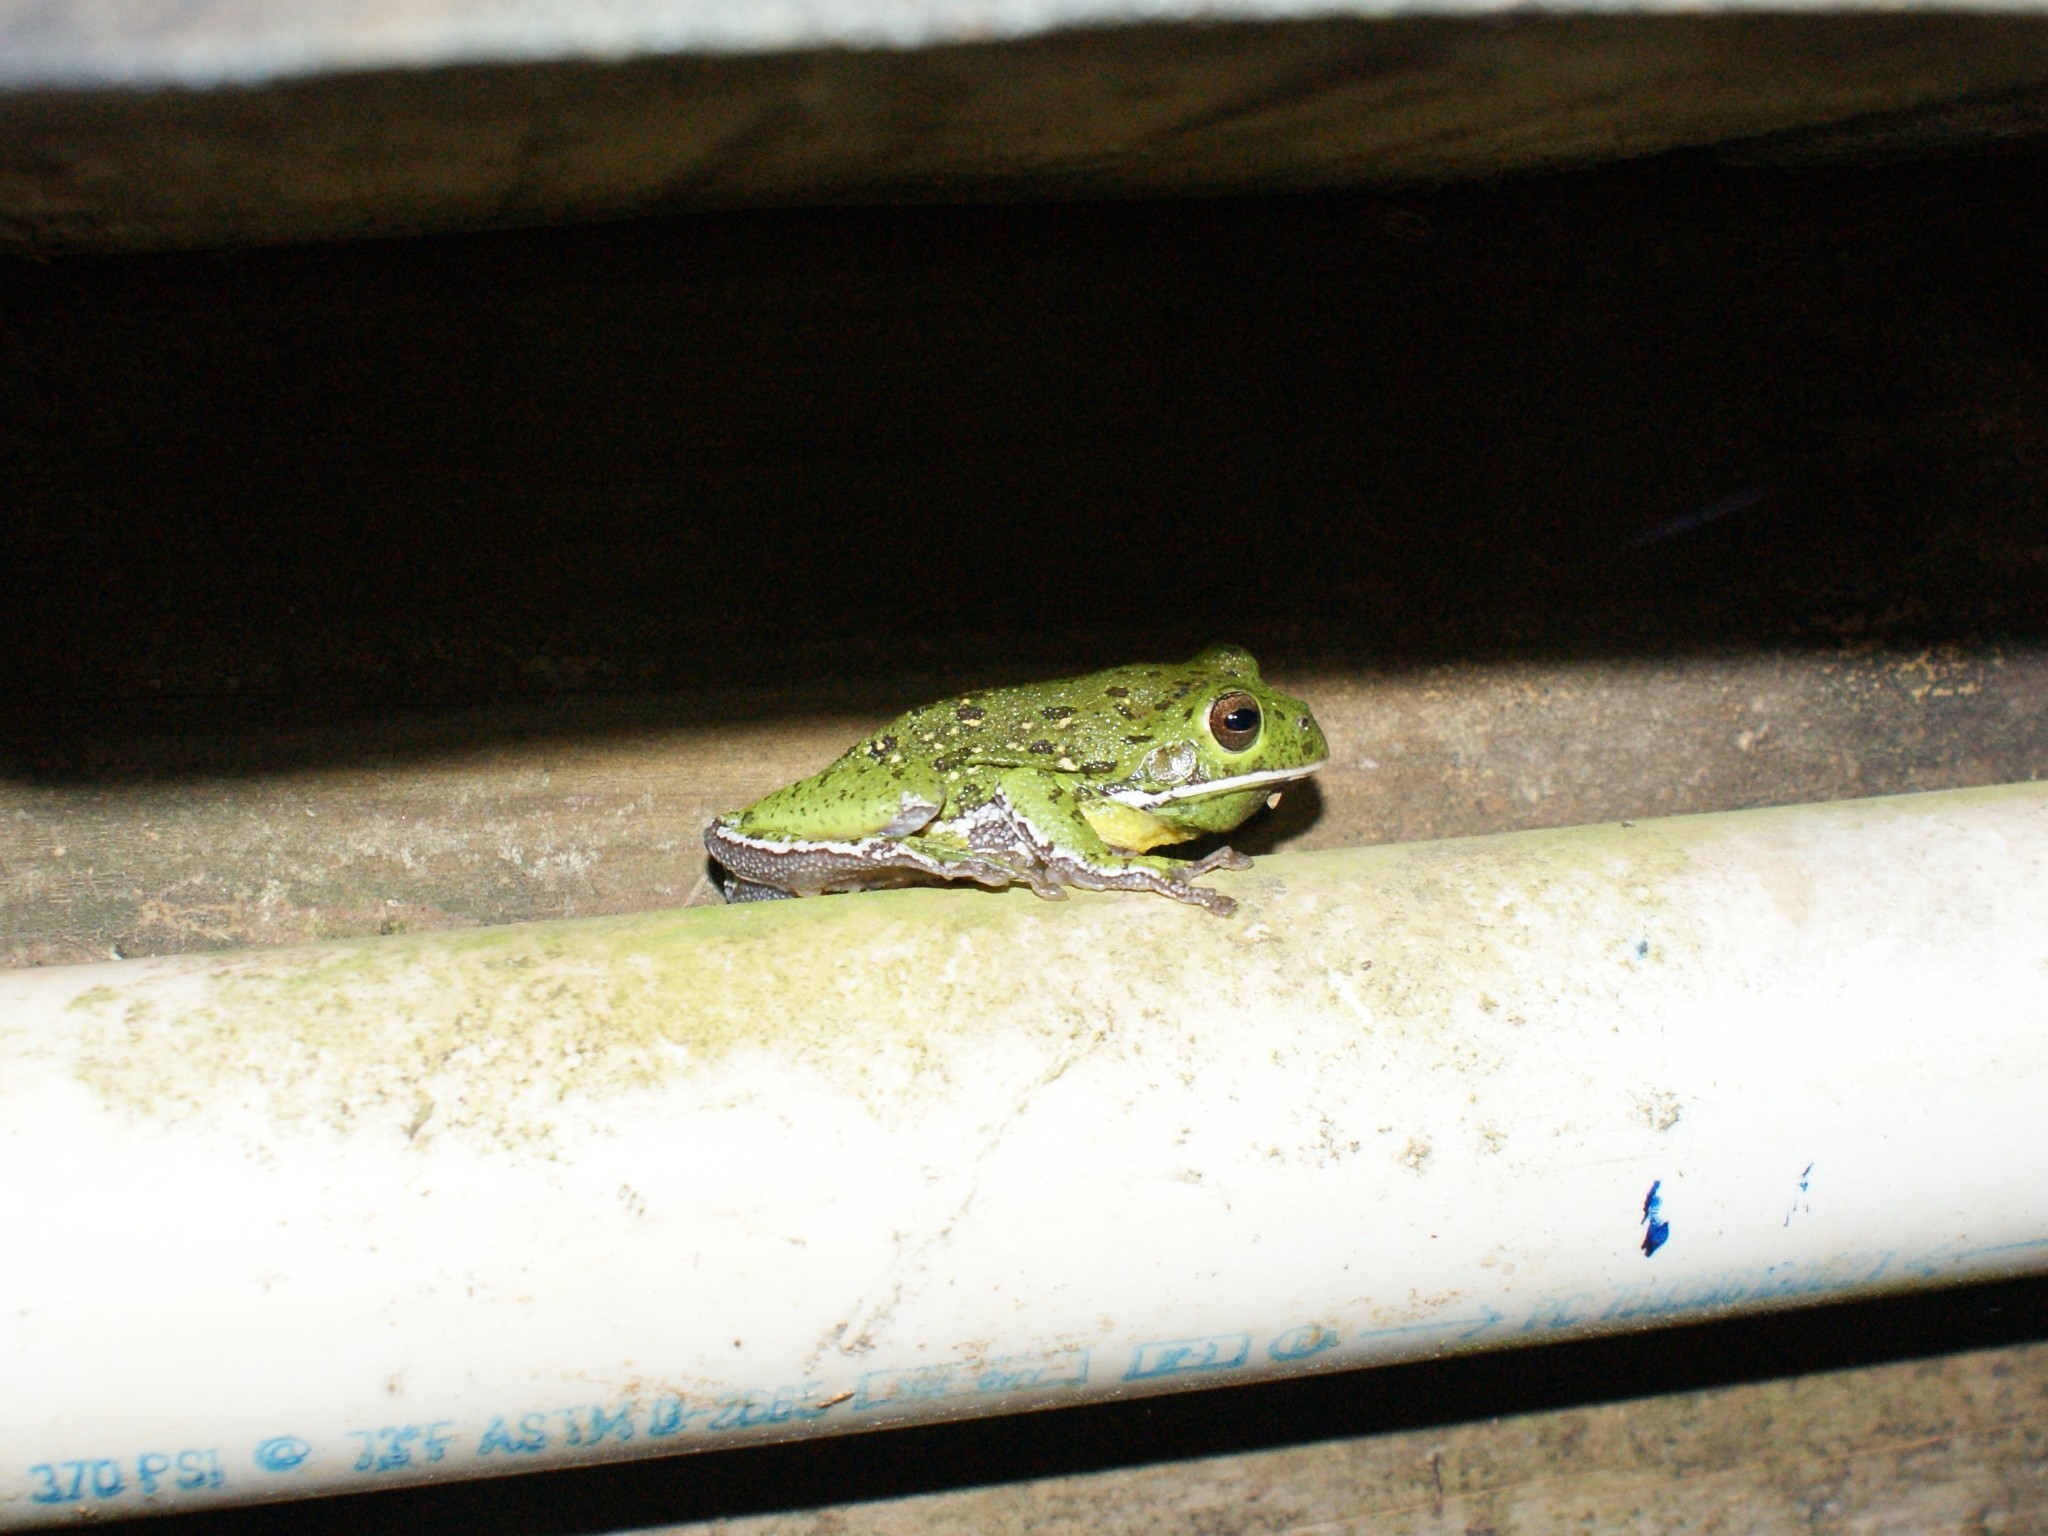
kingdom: Animalia
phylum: Chordata
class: Amphibia
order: Anura
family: Hylidae
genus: Dryophytes
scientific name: Dryophytes gratiosus
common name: Barking treefrog
